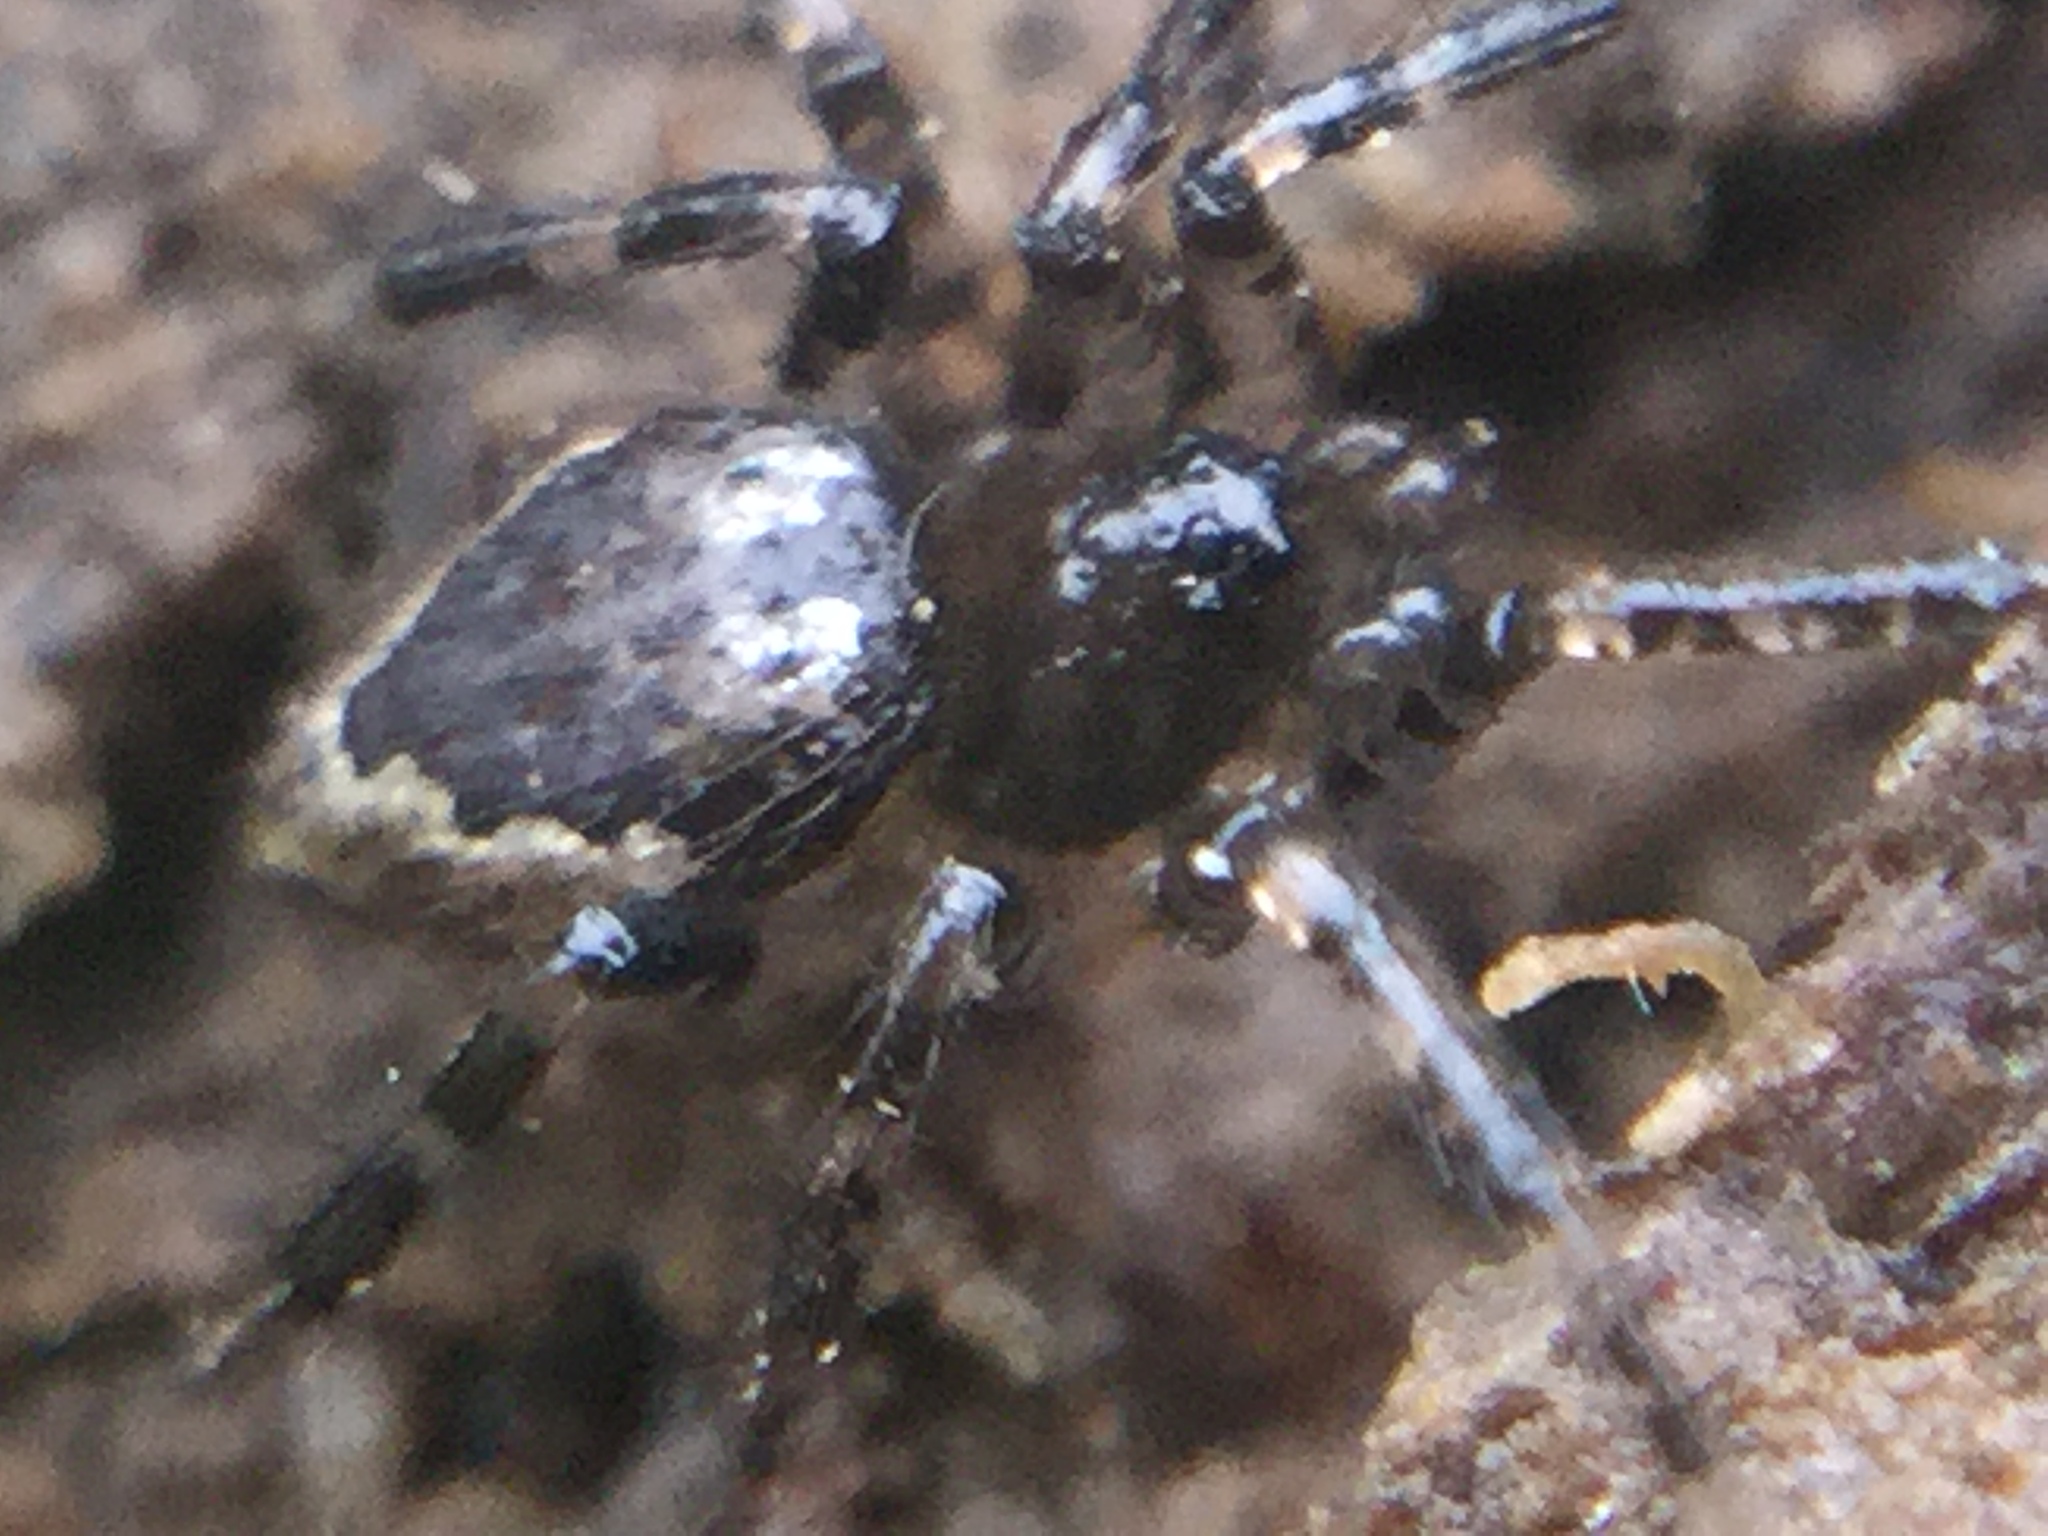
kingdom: Animalia
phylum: Arthropoda
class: Arachnida
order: Araneae
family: Theridiidae
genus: Euryopis
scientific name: Euryopis funebris
